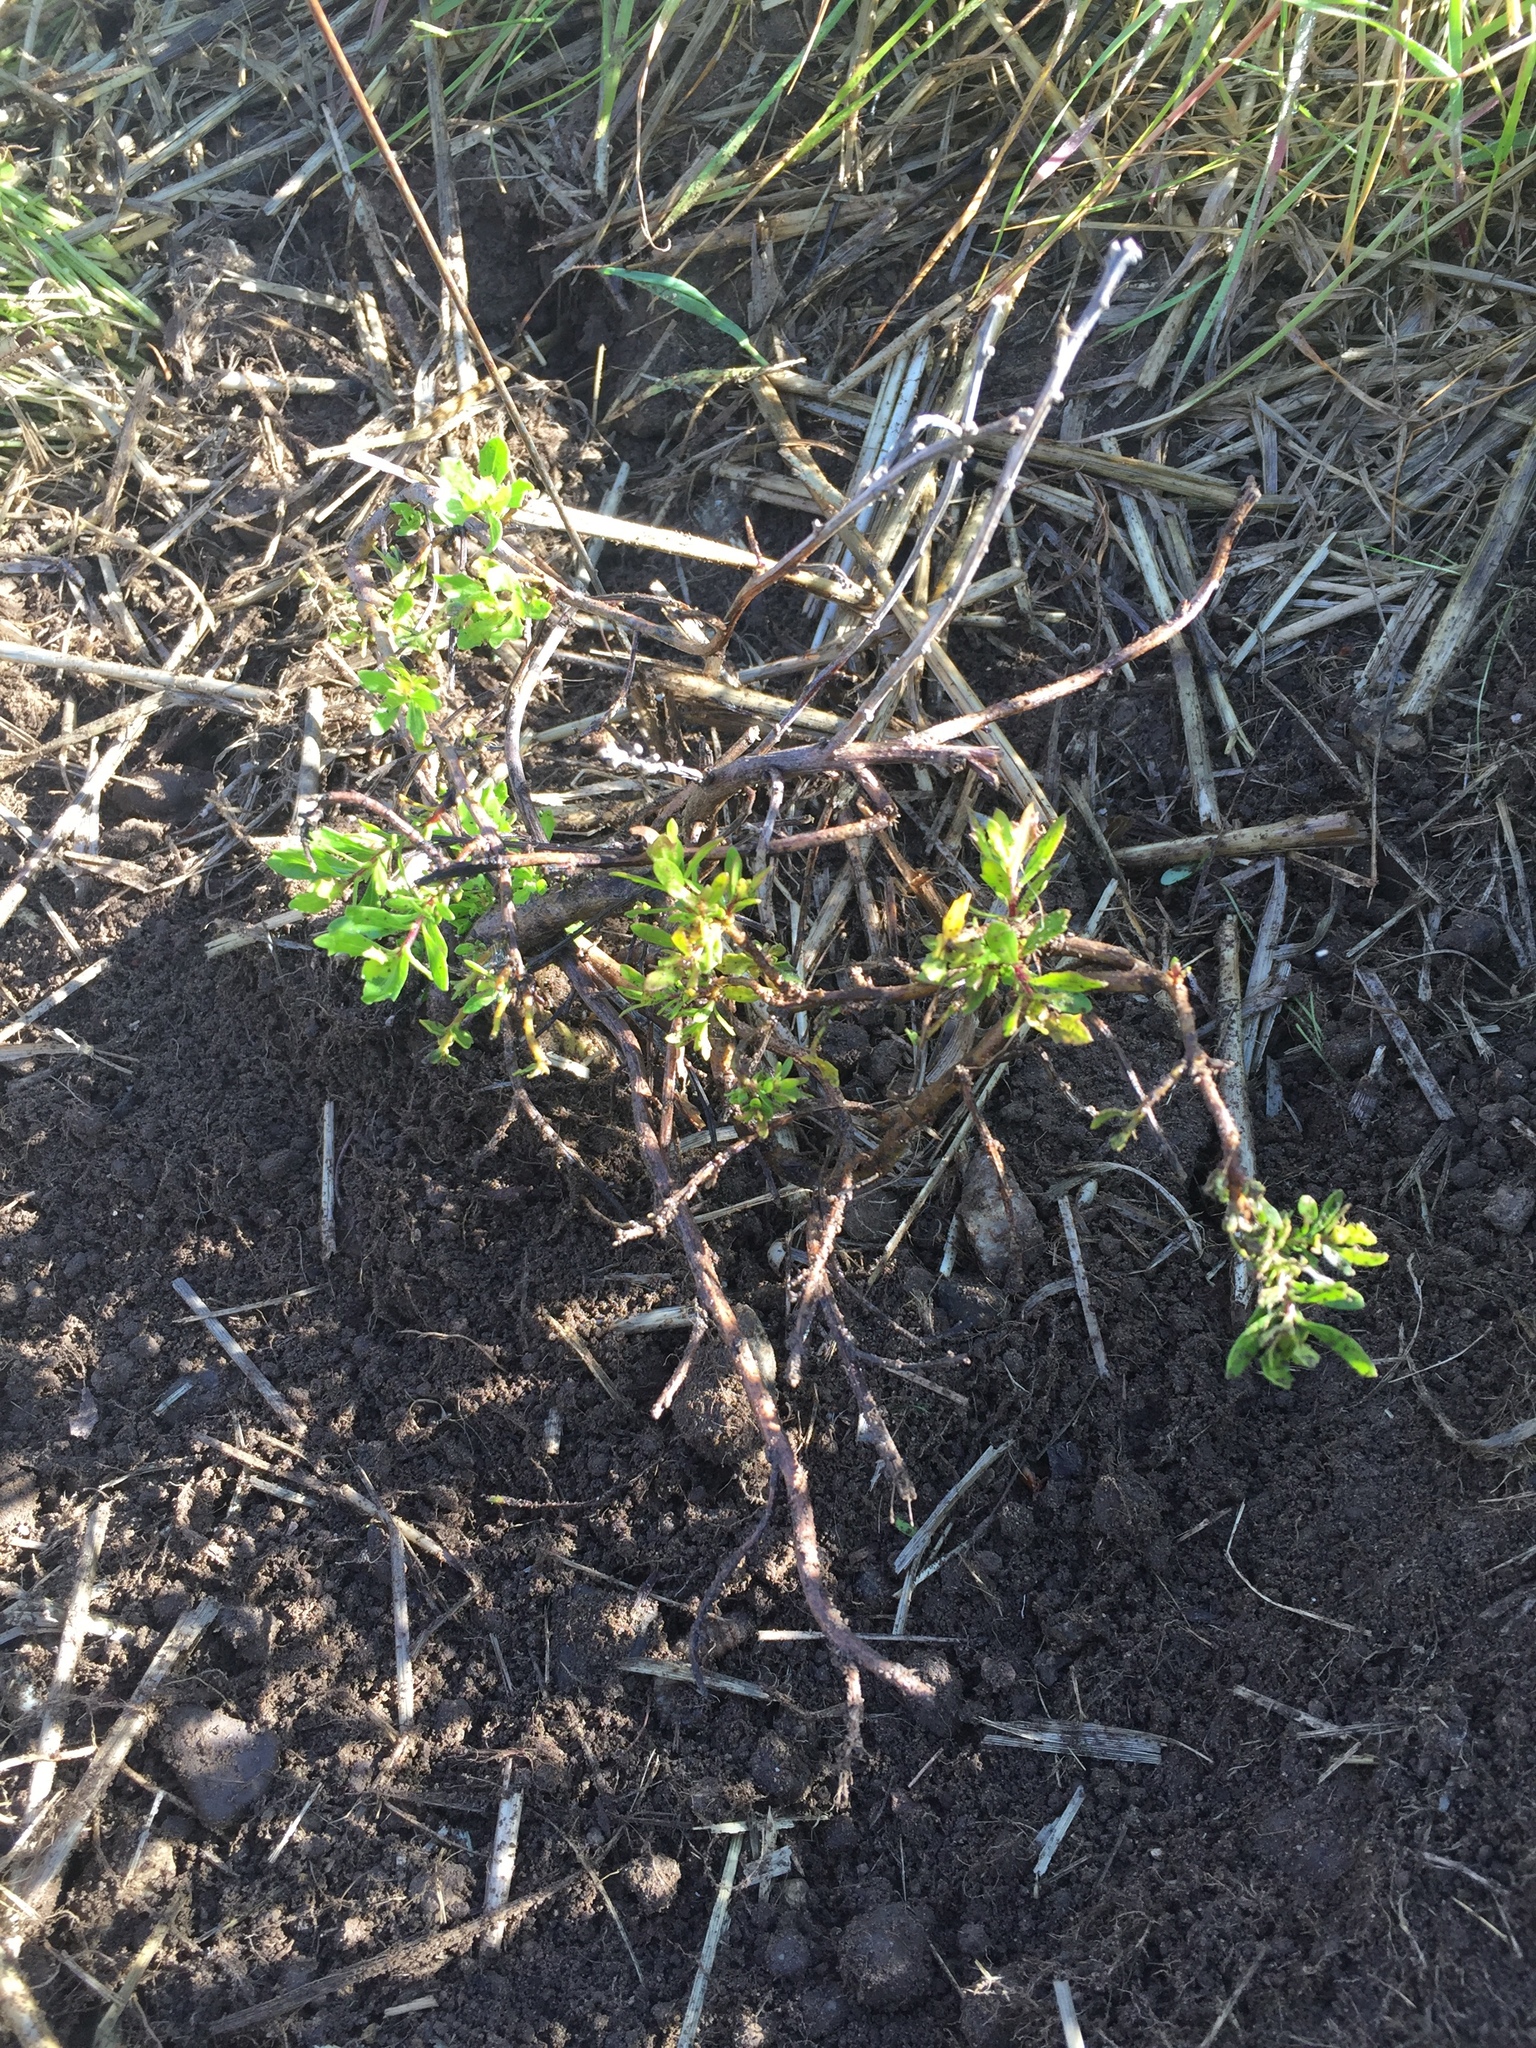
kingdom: Plantae
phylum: Tracheophyta
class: Magnoliopsida
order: Asterales
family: Asteraceae
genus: Baccharis
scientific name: Baccharis pilularis
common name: Coyotebrush
